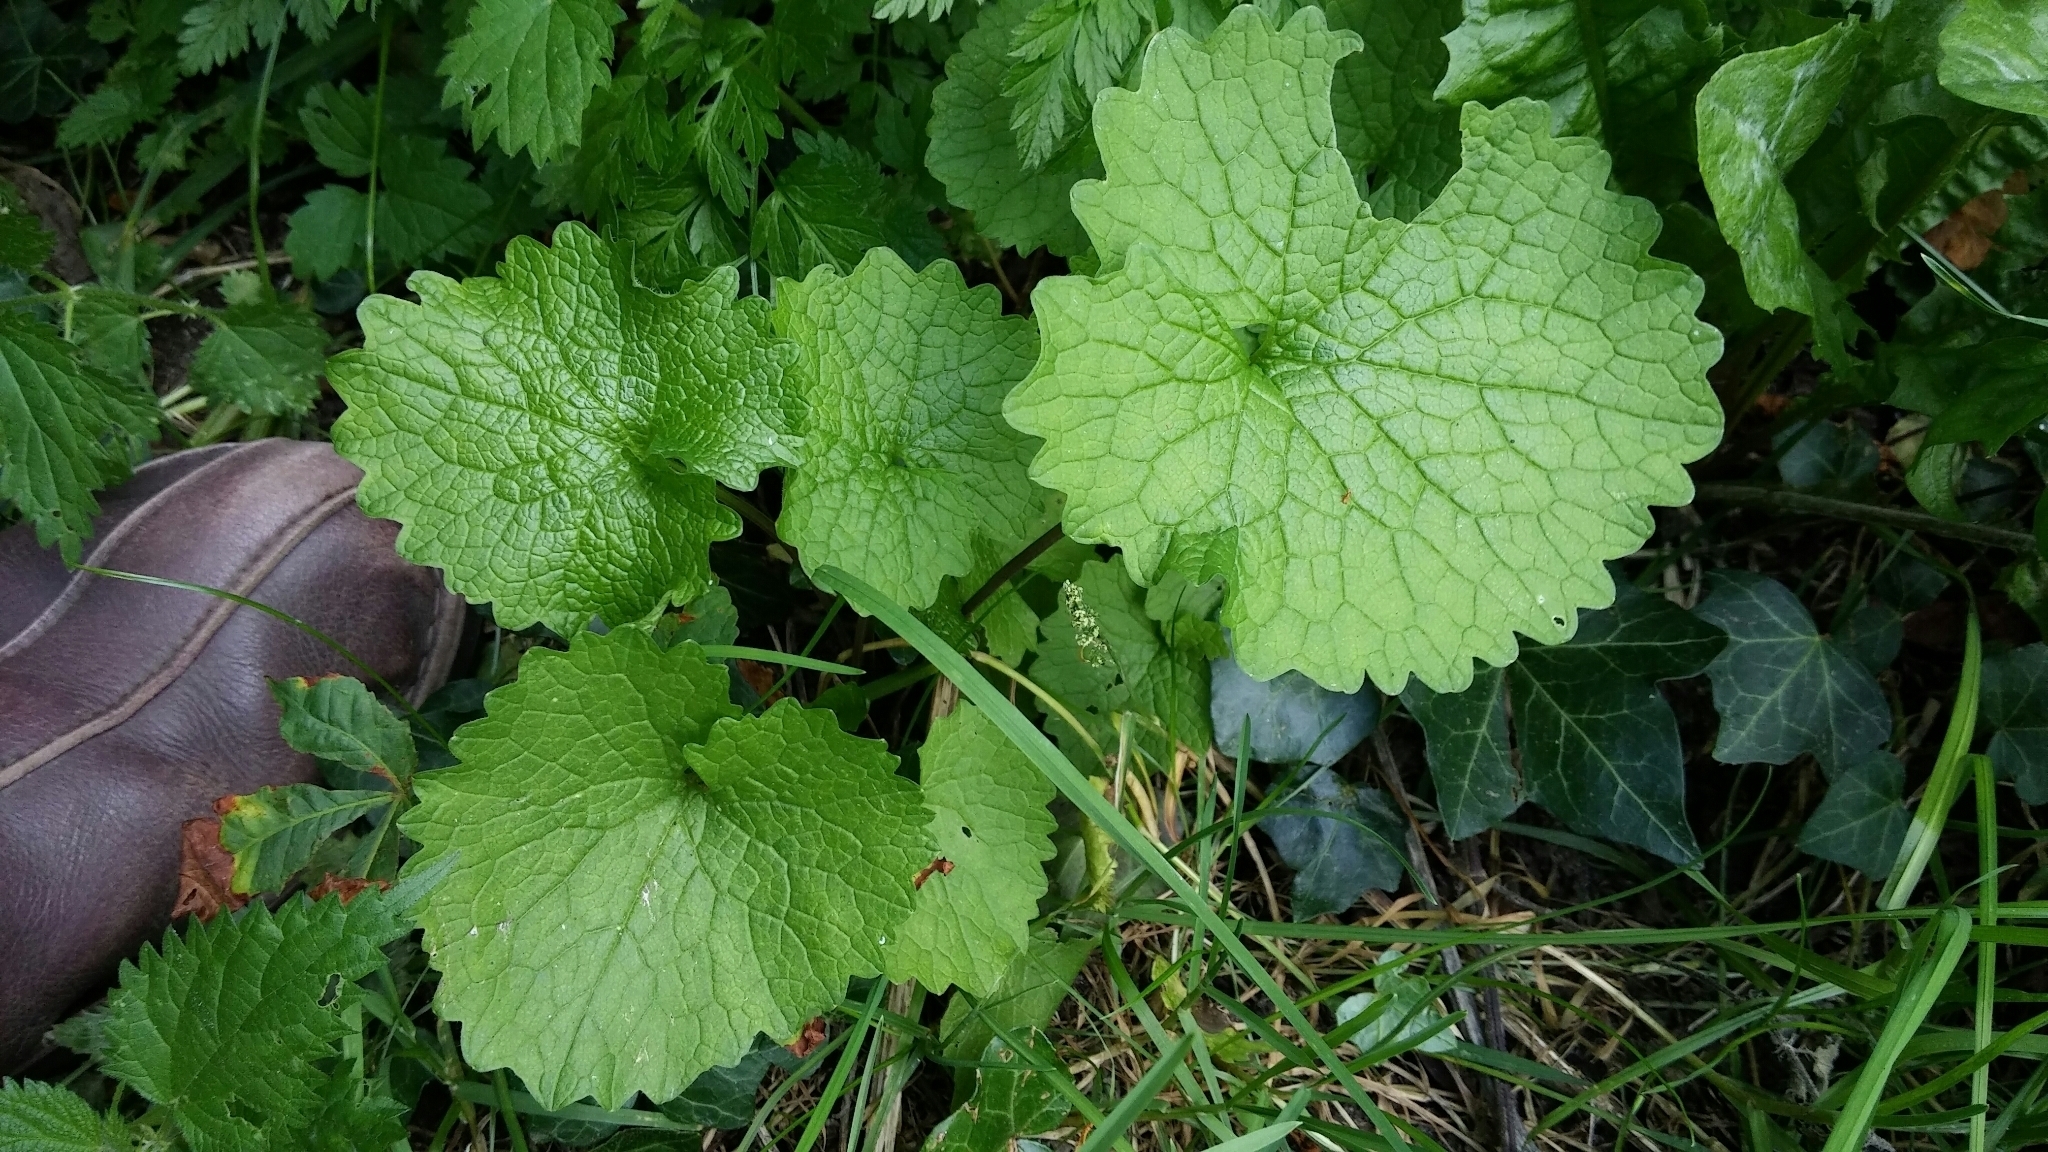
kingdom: Plantae
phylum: Tracheophyta
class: Magnoliopsida
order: Brassicales
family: Brassicaceae
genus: Alliaria
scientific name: Alliaria petiolata
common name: Garlic mustard
